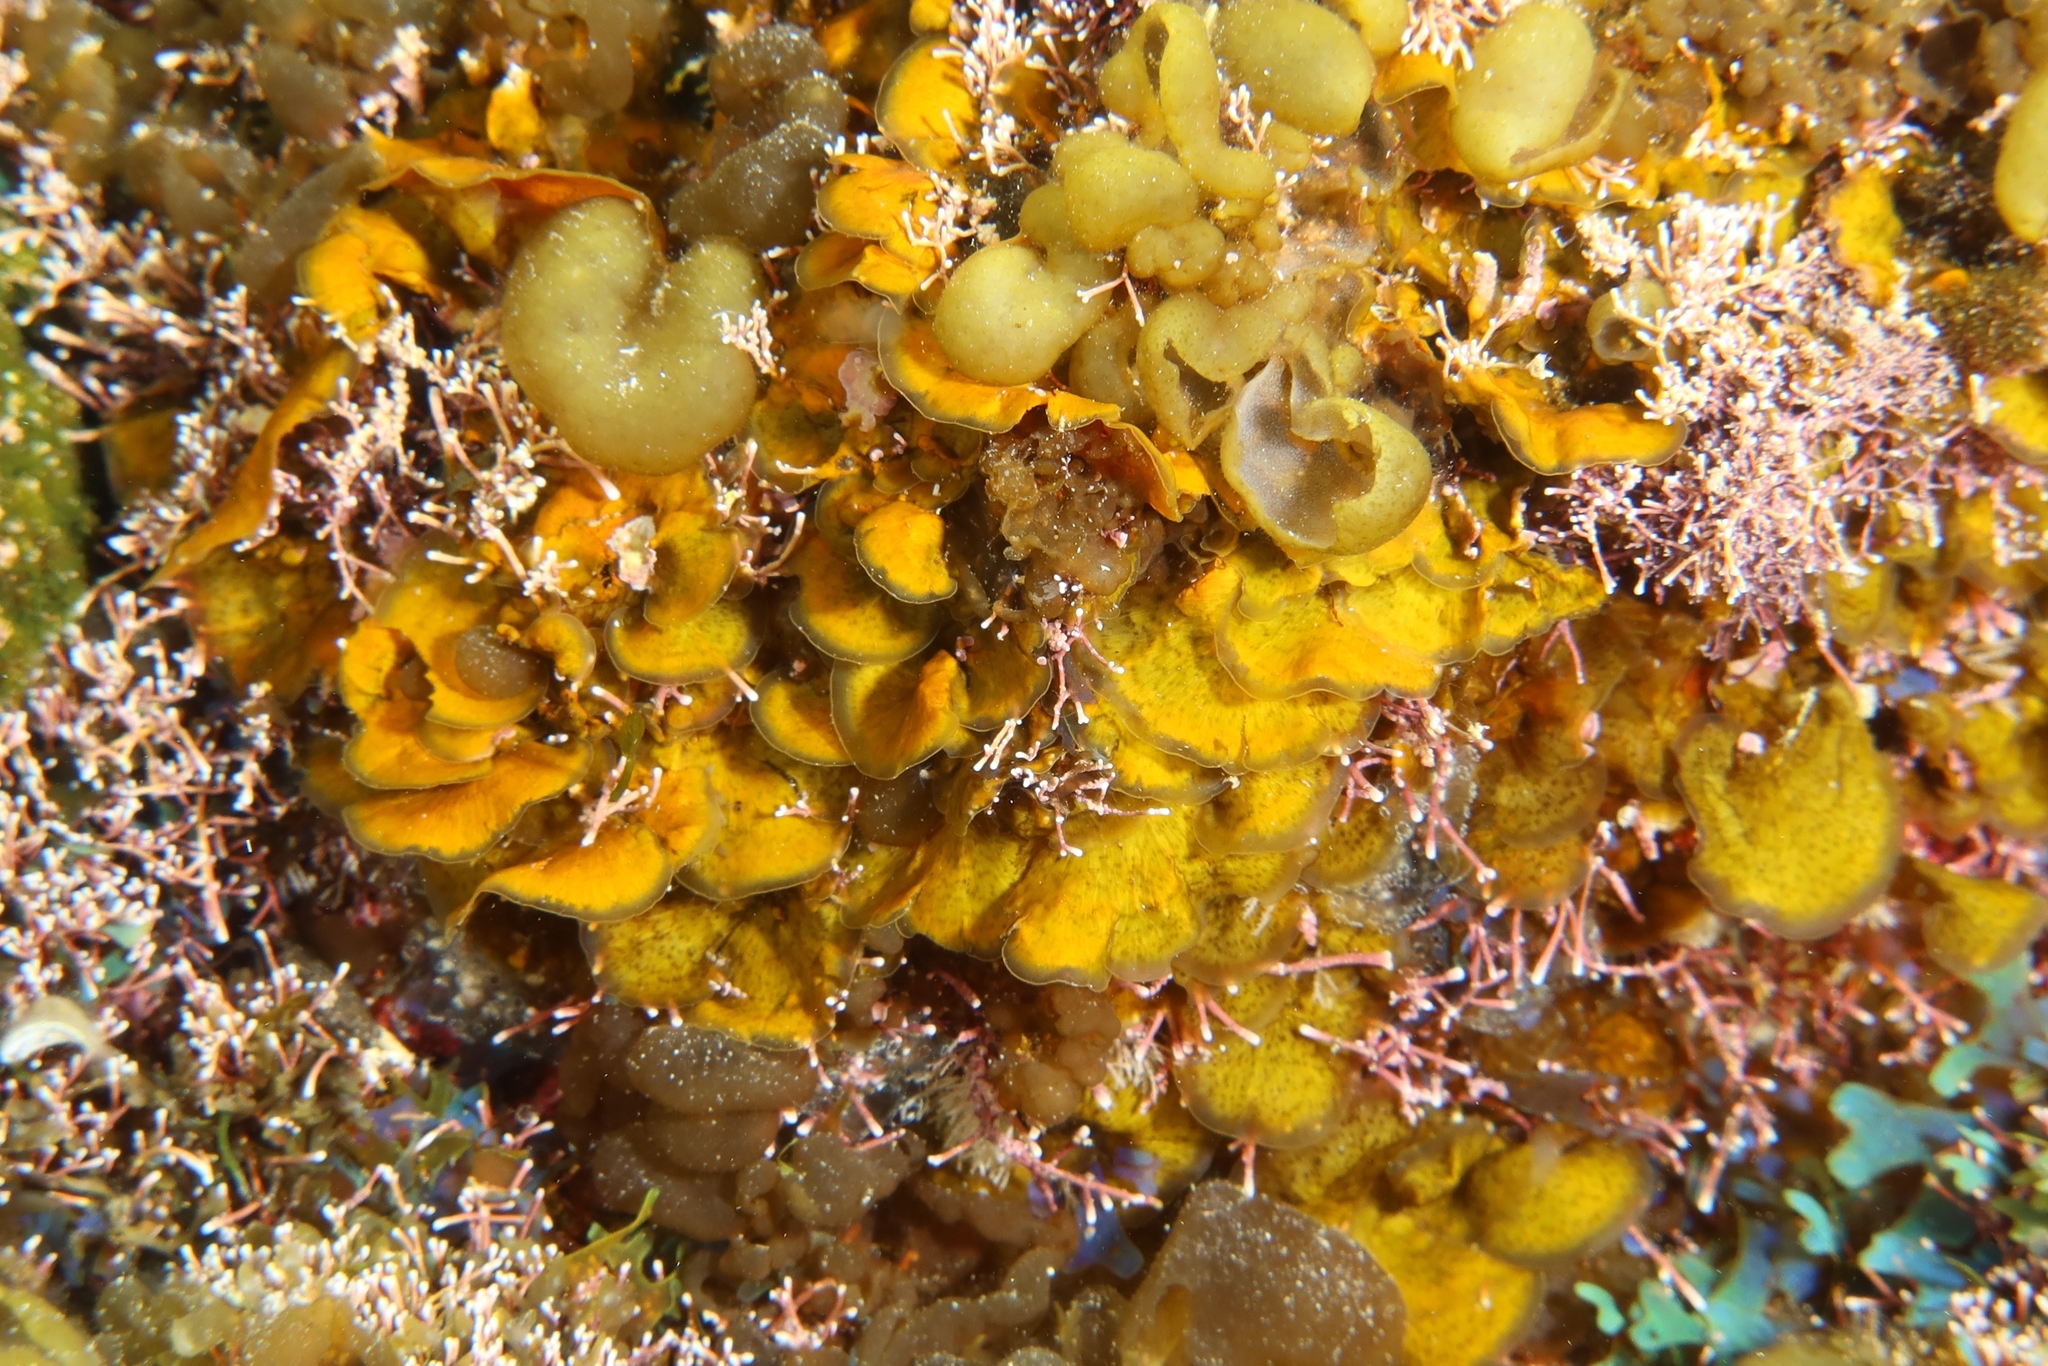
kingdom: Chromista
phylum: Ochrophyta
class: Phaeophyceae
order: Dictyotales
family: Dictyotaceae
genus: Lobophora
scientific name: Lobophora variegata
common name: Encrusting fan-leaf algae
